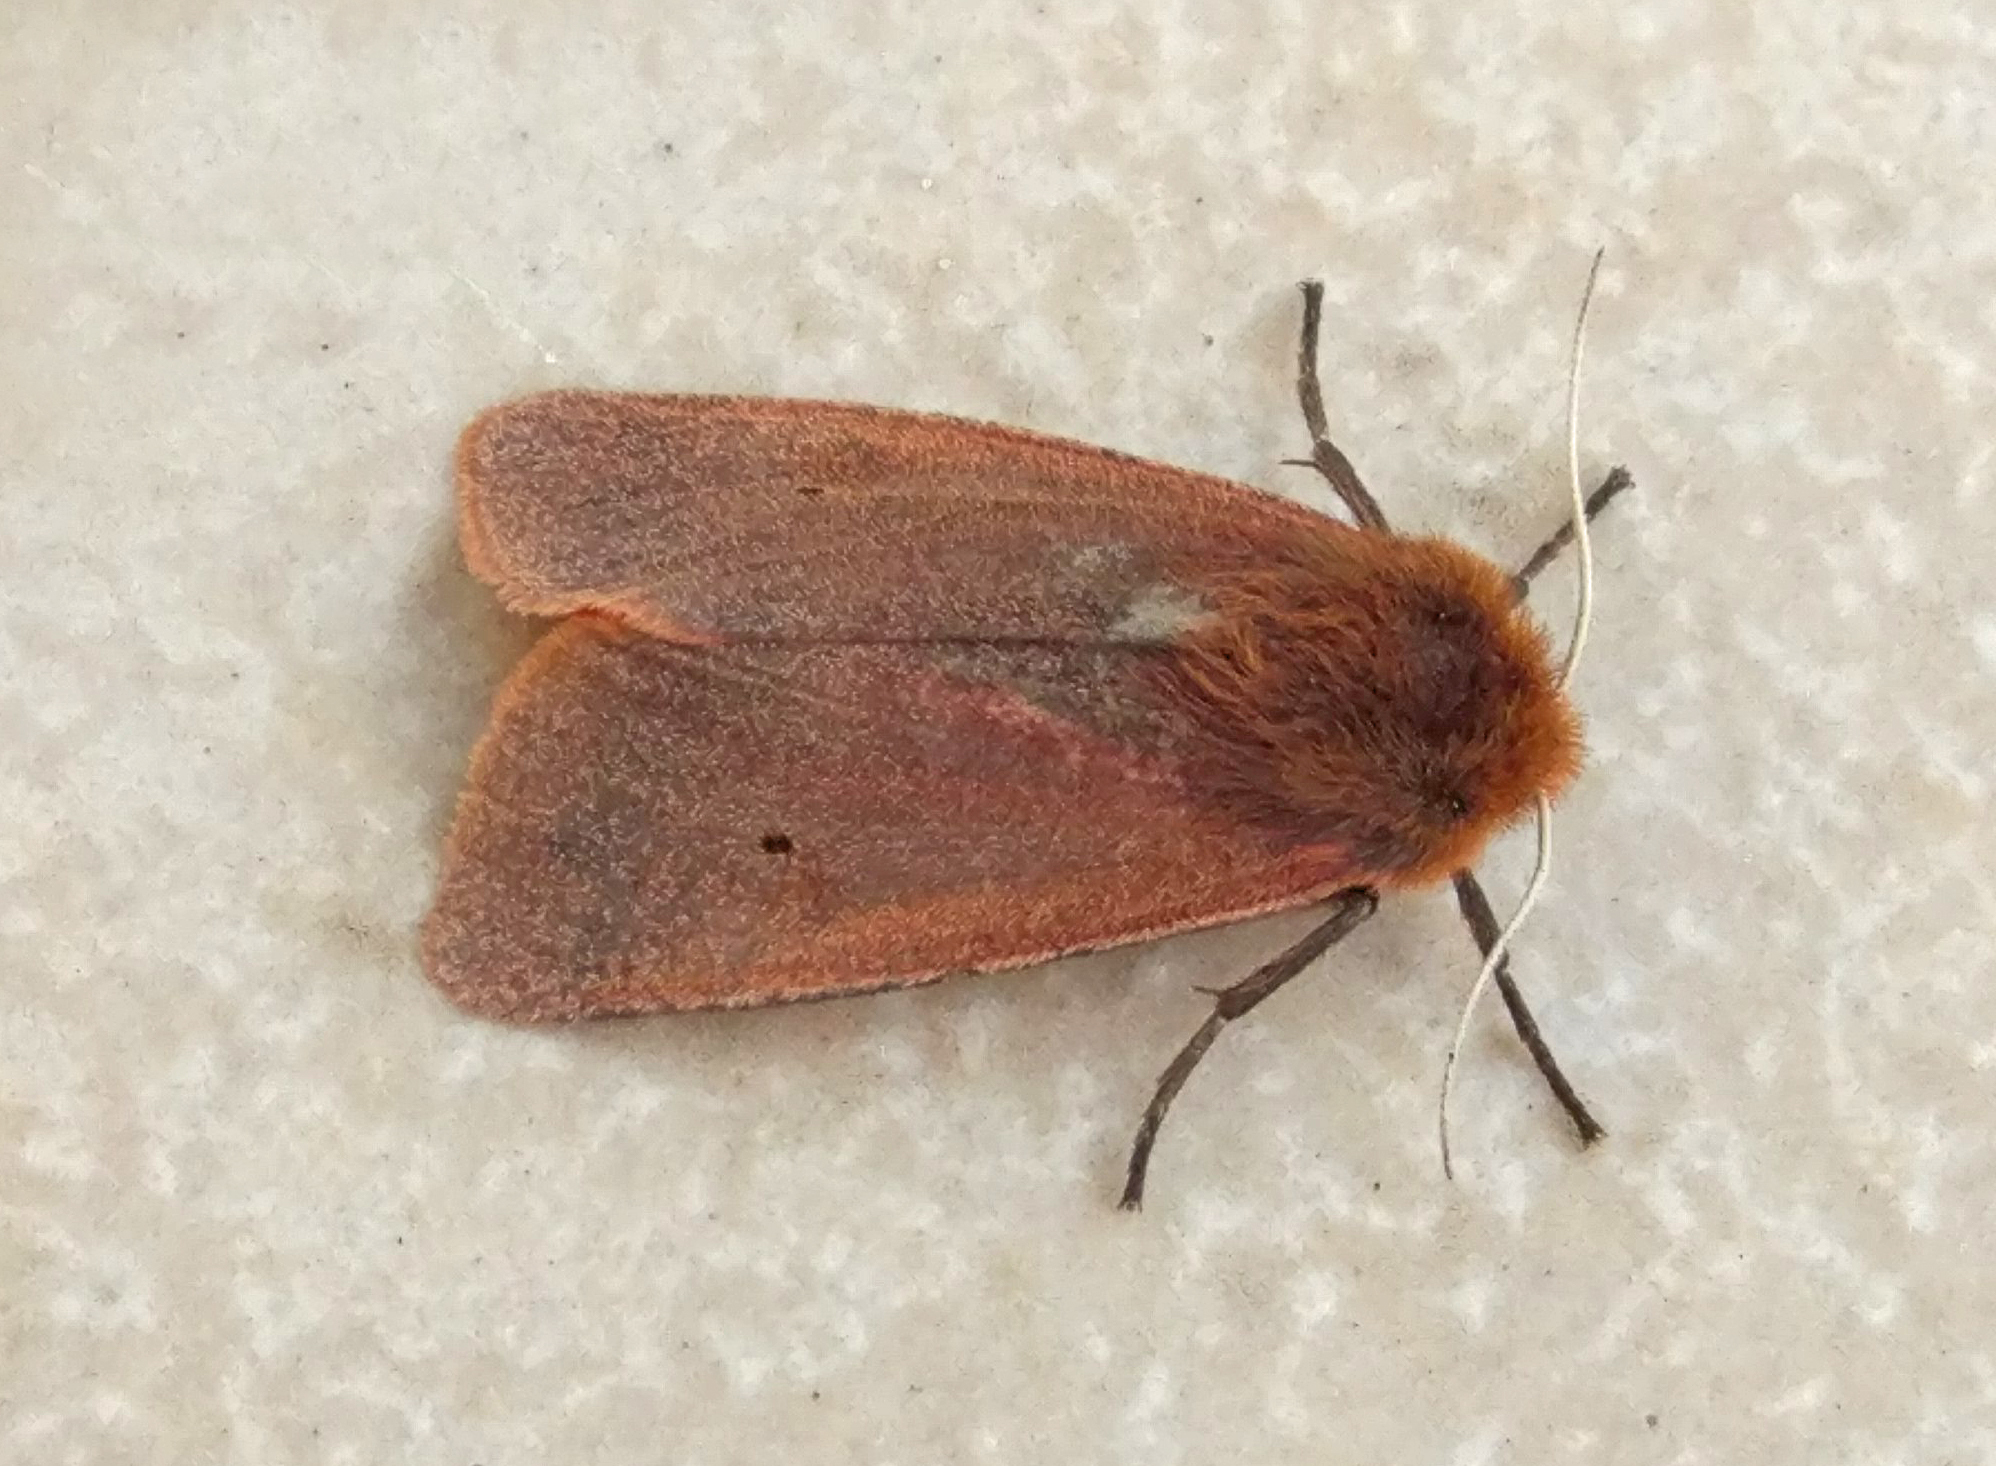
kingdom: Animalia
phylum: Arthropoda
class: Insecta
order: Lepidoptera
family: Erebidae
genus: Phragmatobia
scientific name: Phragmatobia fuliginosa
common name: Ruby tiger
